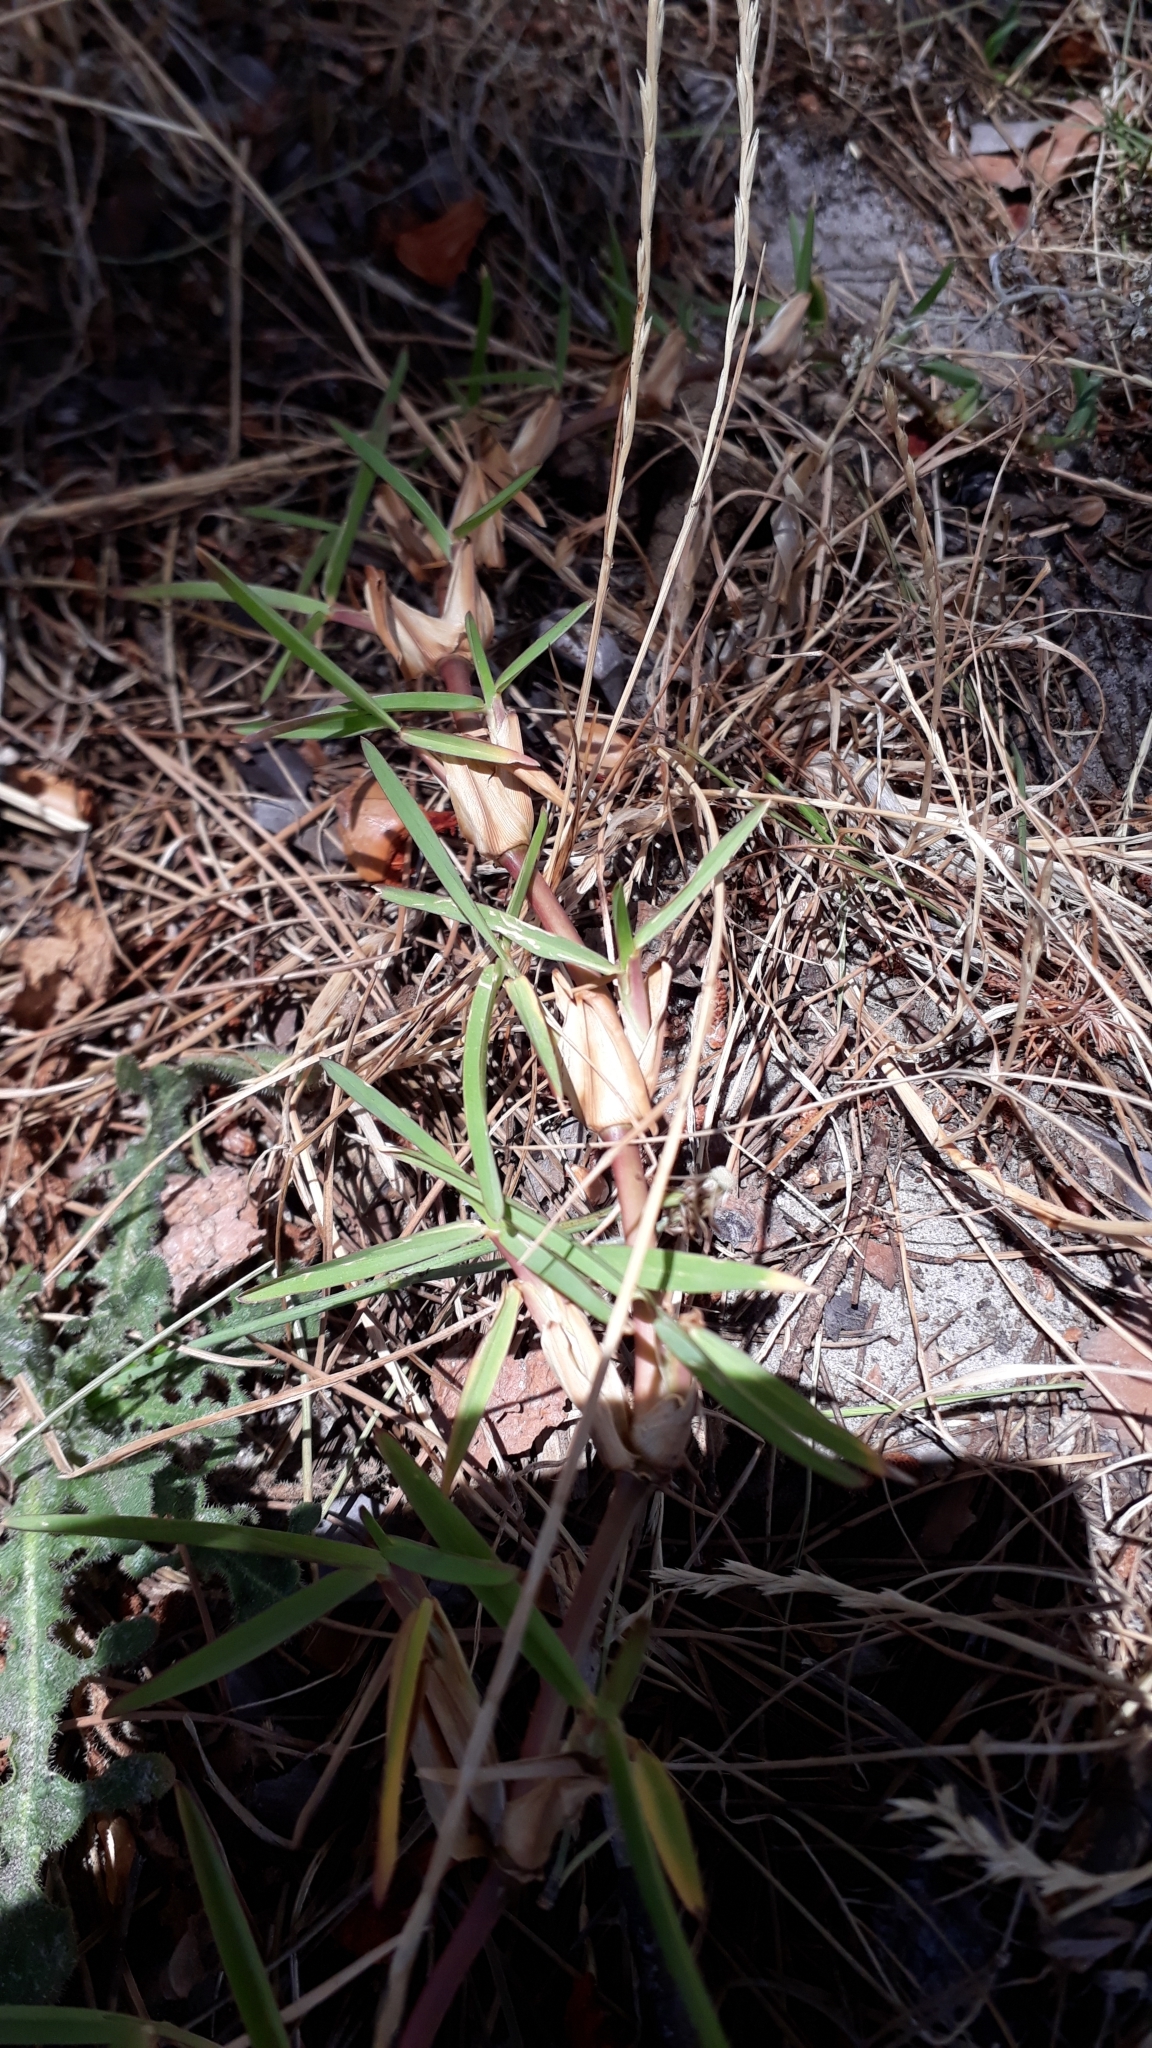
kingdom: Plantae
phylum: Tracheophyta
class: Liliopsida
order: Poales
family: Poaceae
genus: Stenotaphrum
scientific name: Stenotaphrum secundatum
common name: St. augustine grass
